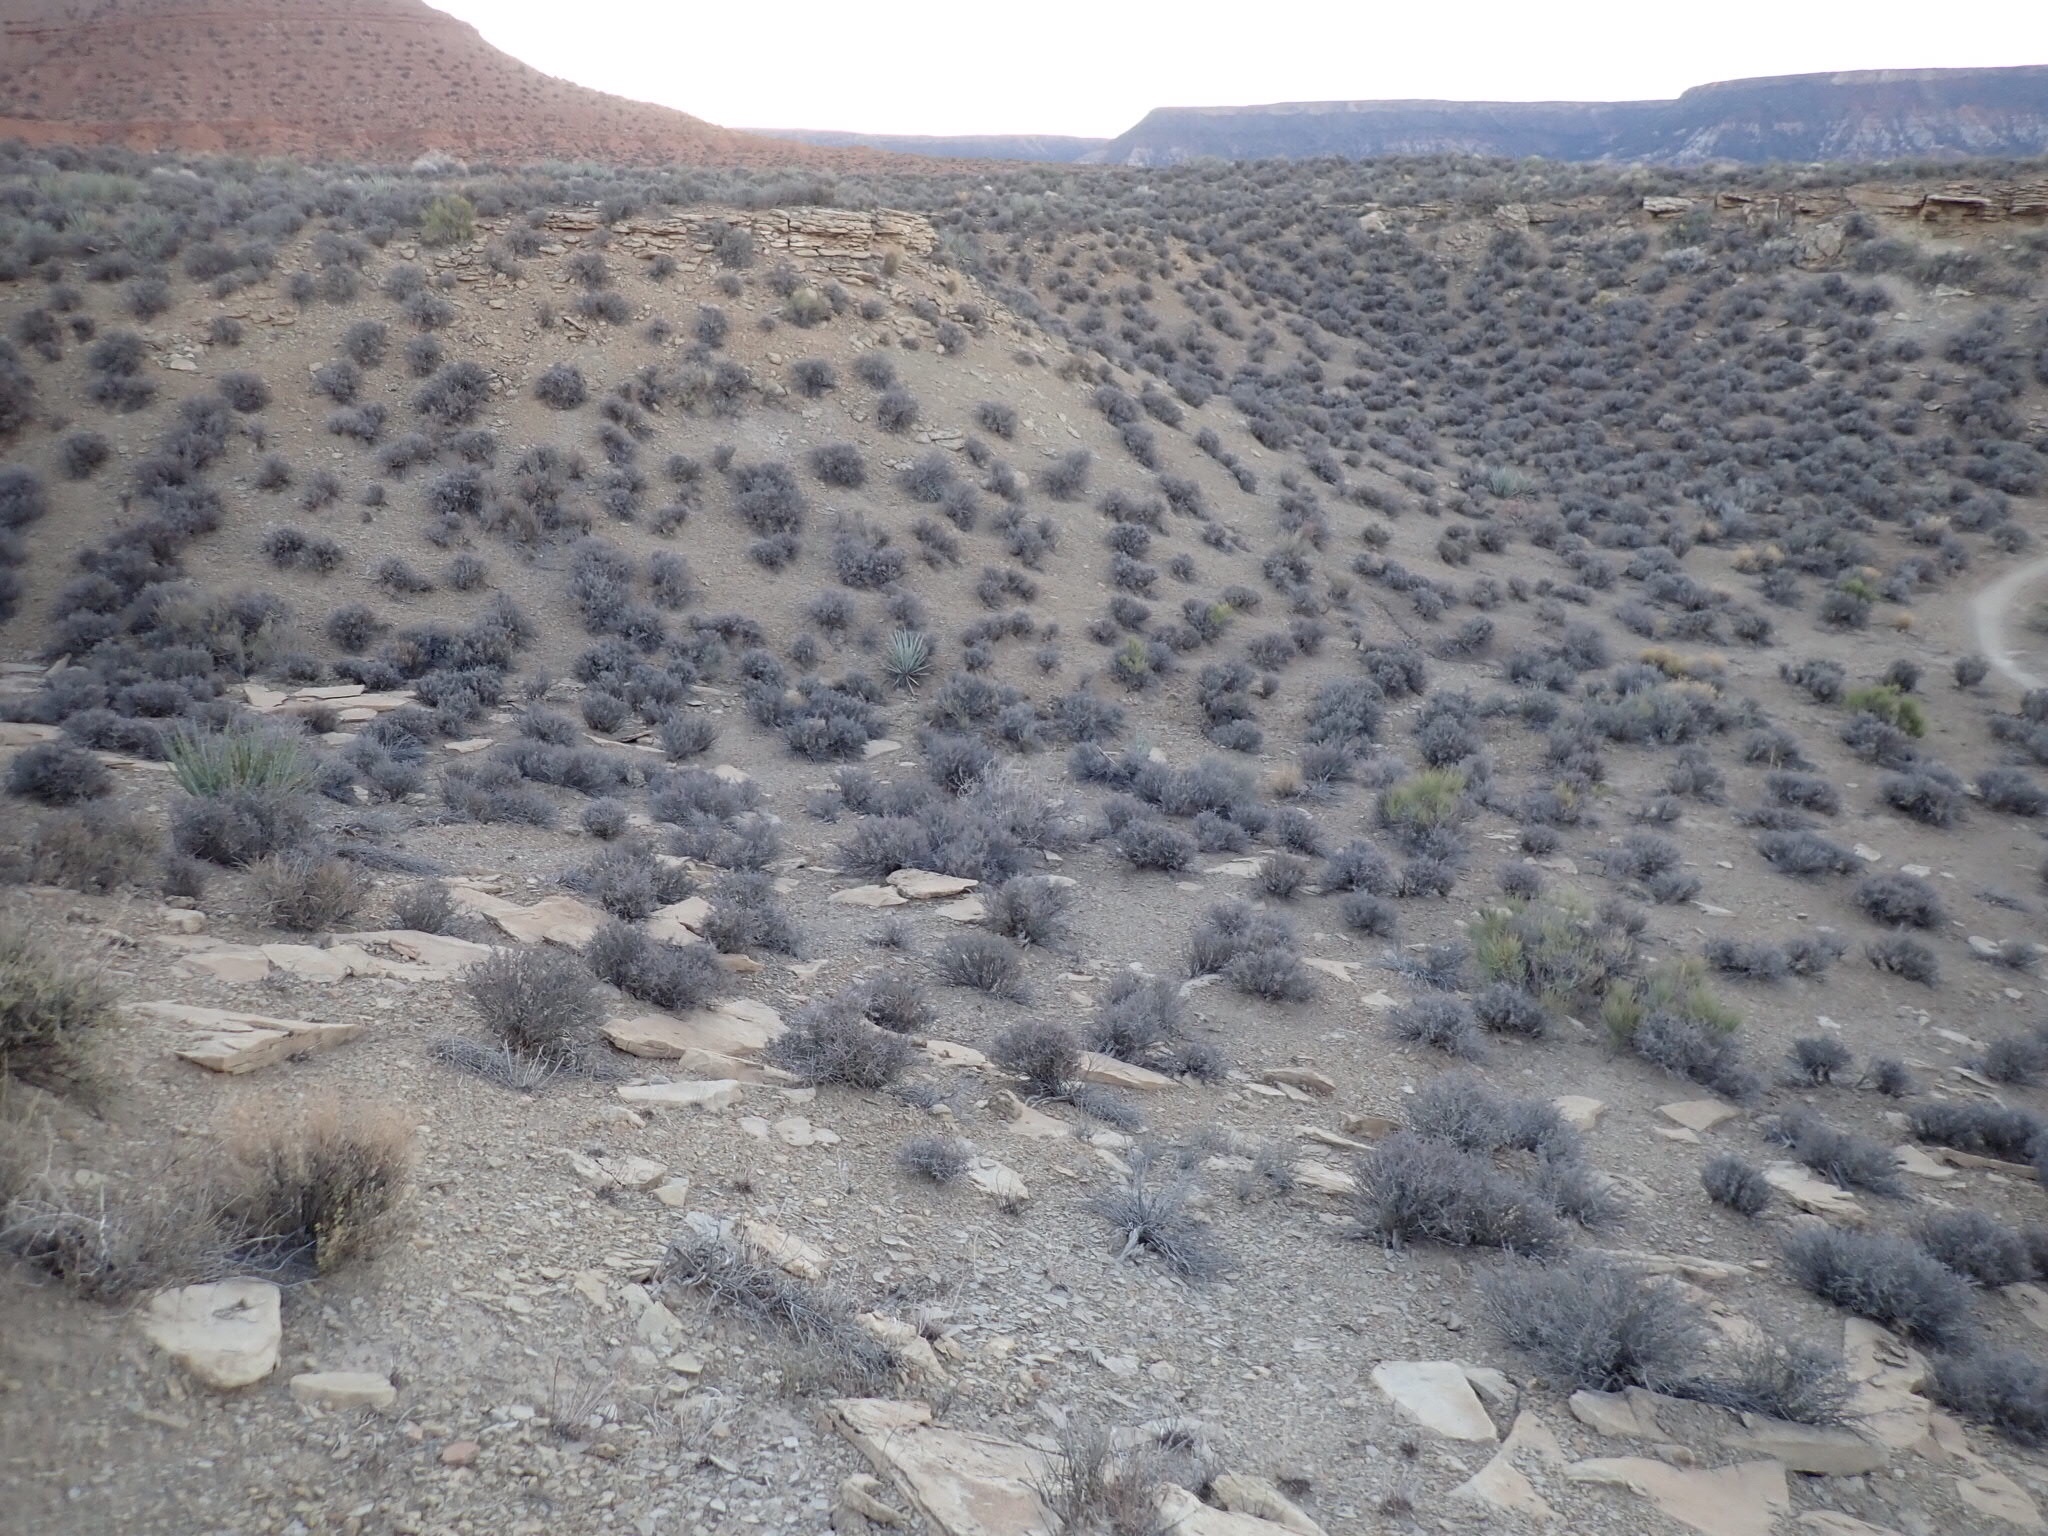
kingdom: Plantae
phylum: Tracheophyta
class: Magnoliopsida
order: Rosales
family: Rosaceae
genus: Coleogyne
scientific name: Coleogyne ramosissima
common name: Blackbrush
